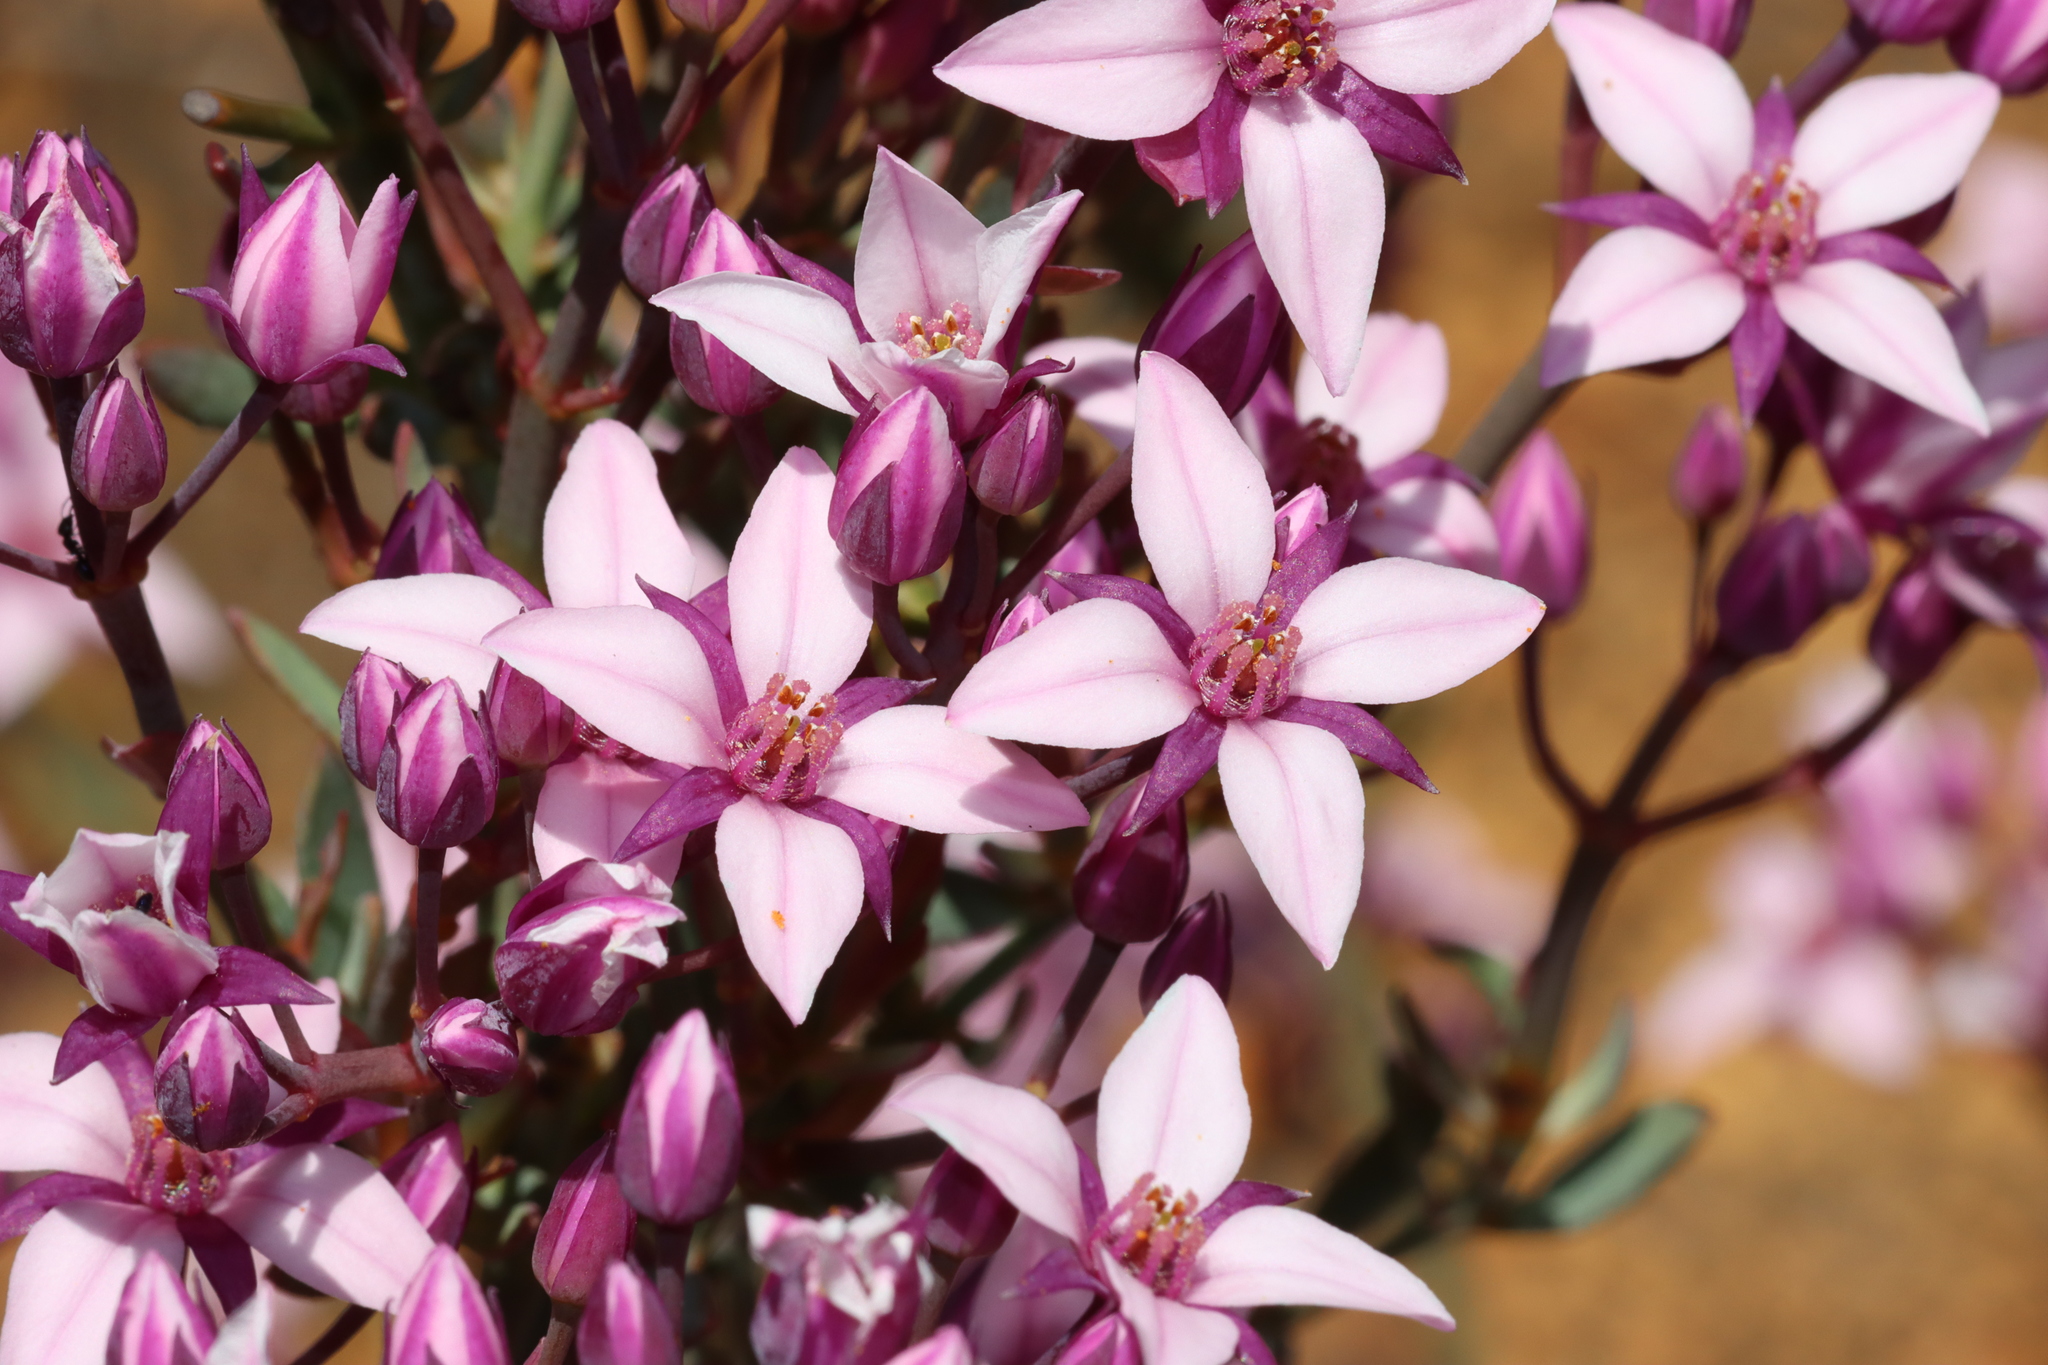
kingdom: Plantae
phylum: Tracheophyta
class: Magnoliopsida
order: Sapindales
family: Rutaceae
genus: Boronia
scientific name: Boronia fastigiata
